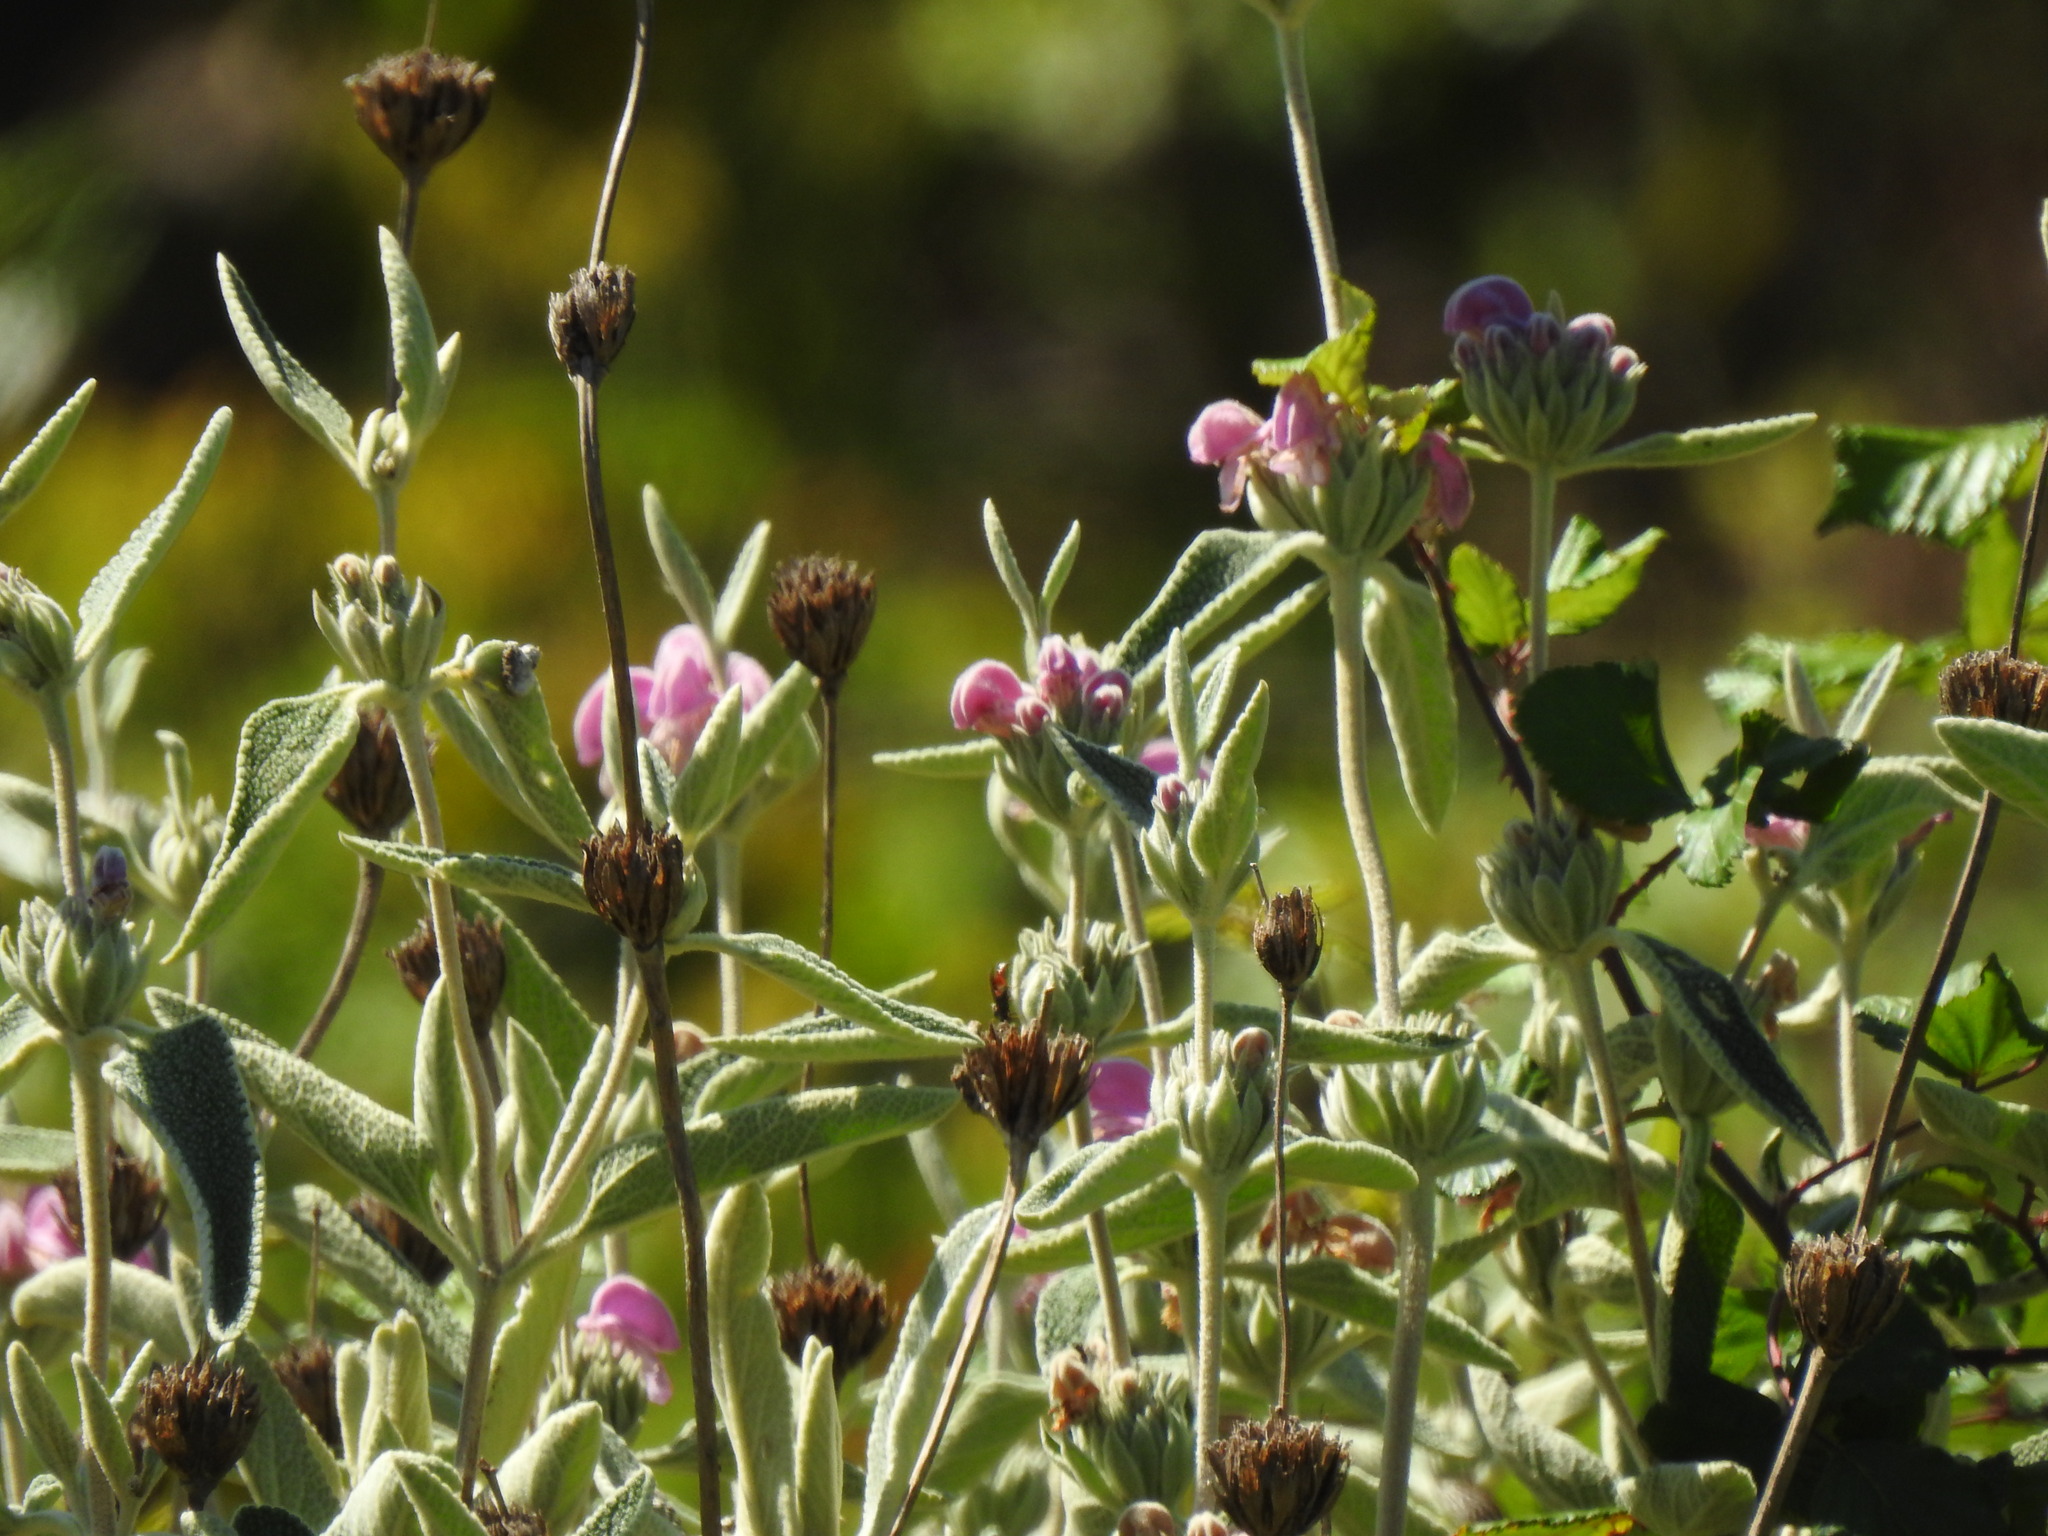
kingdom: Plantae
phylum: Tracheophyta
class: Magnoliopsida
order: Lamiales
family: Lamiaceae
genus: Phlomis
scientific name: Phlomis purpurea
